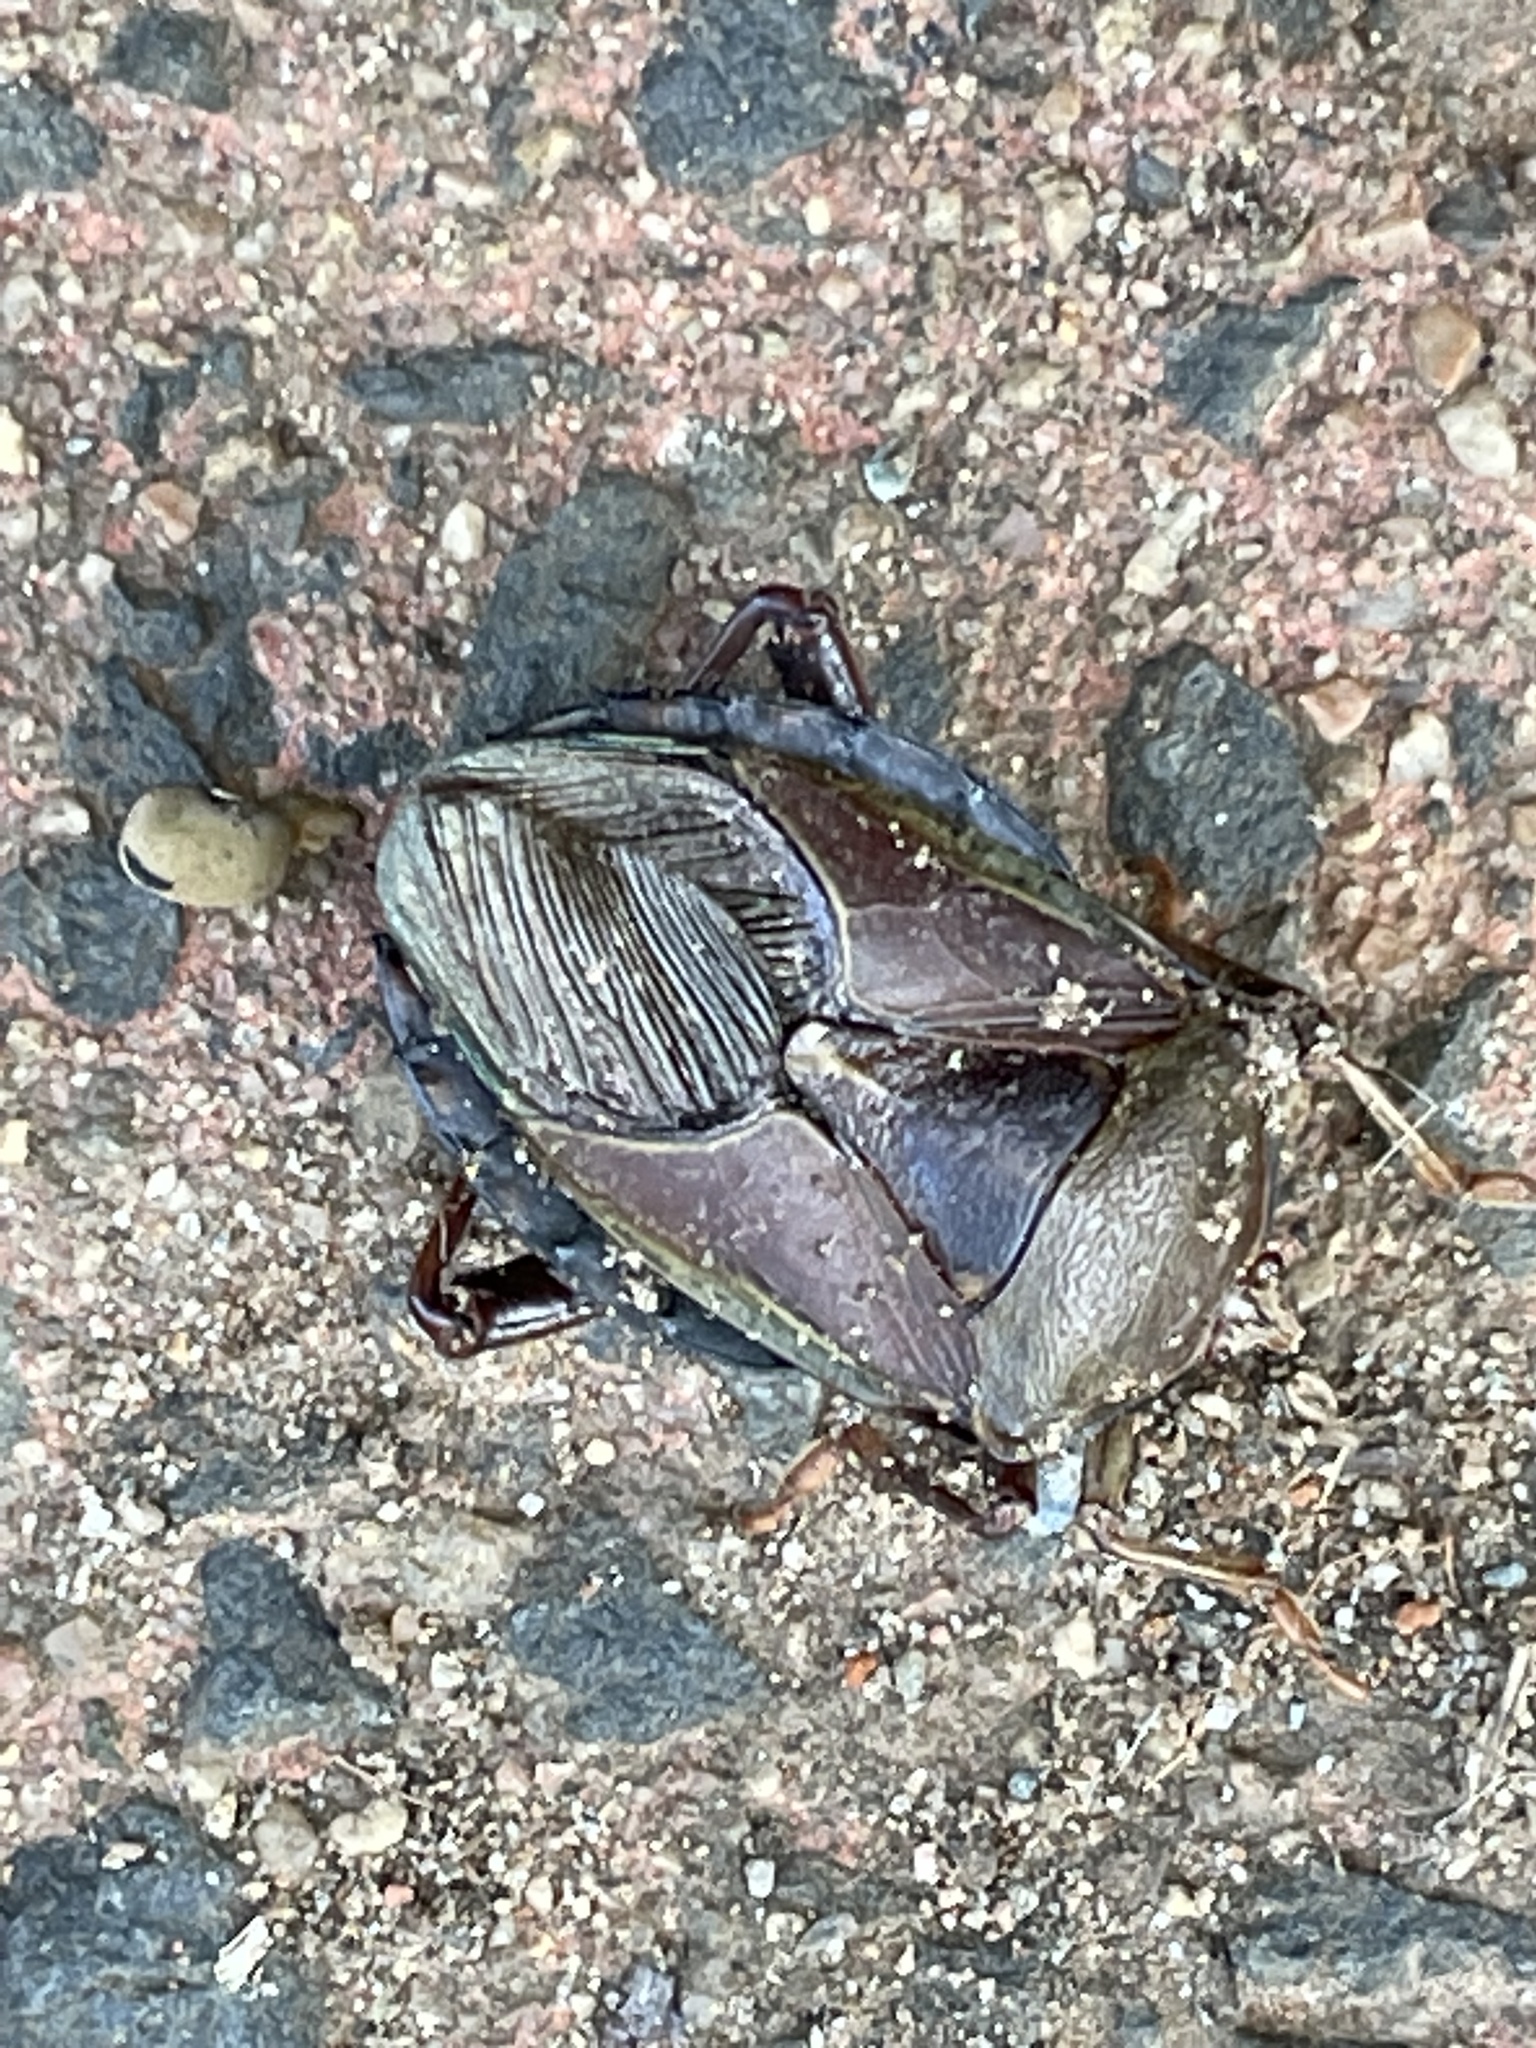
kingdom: Animalia
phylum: Arthropoda
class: Insecta
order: Hemiptera
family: Tessaratomidae
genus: Musgraveia
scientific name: Musgraveia sulciventris
